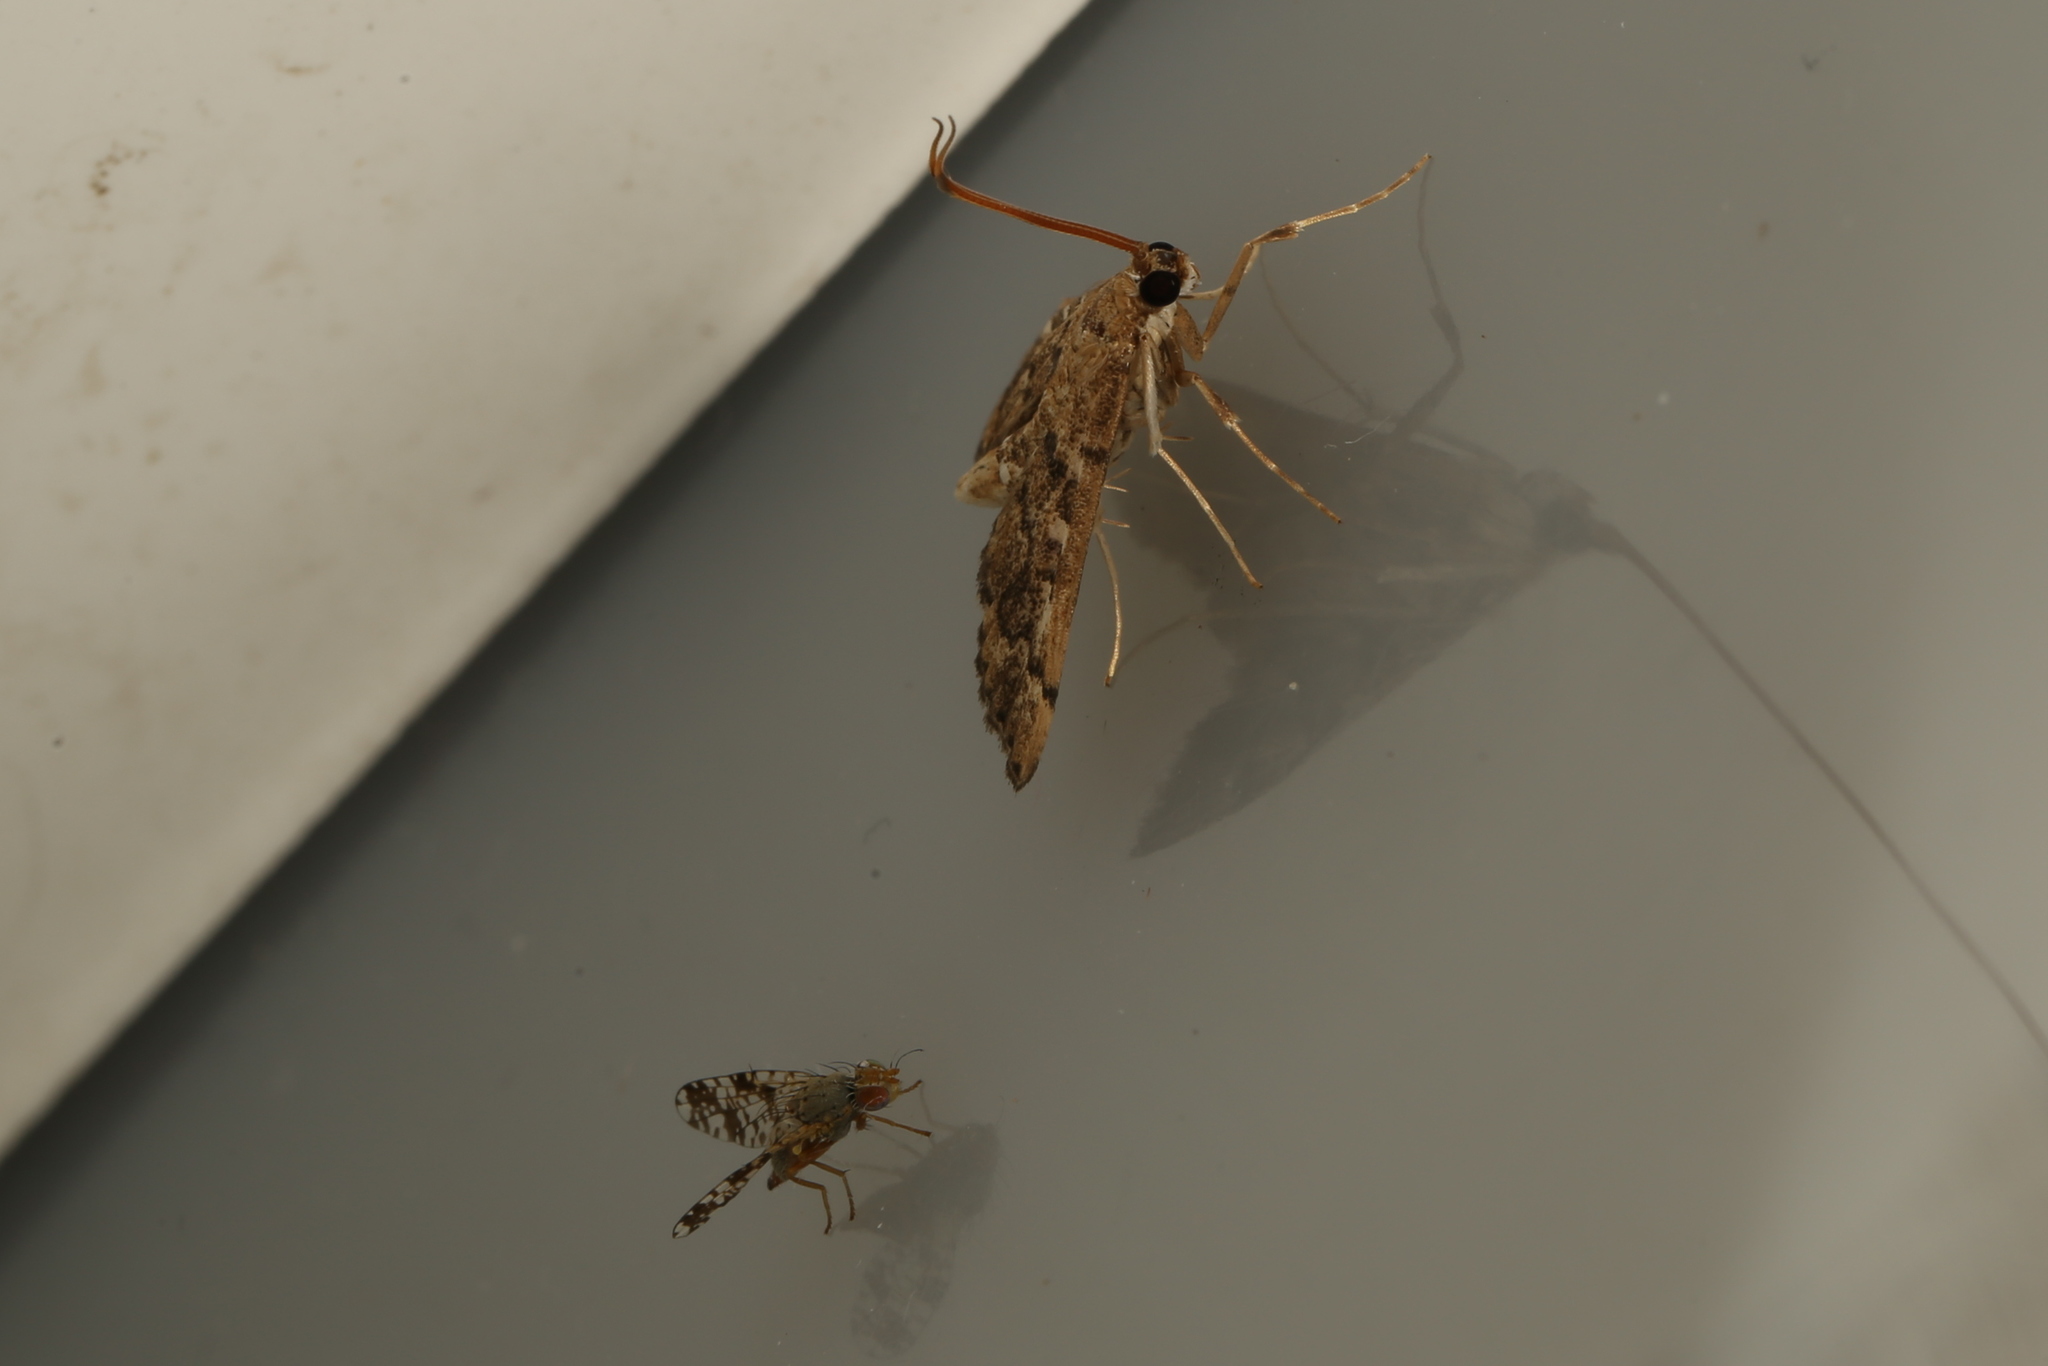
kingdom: Animalia
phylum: Arthropoda
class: Insecta
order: Lepidoptera
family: Crambidae
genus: Nacoleia
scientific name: Nacoleia rhoeoalis
